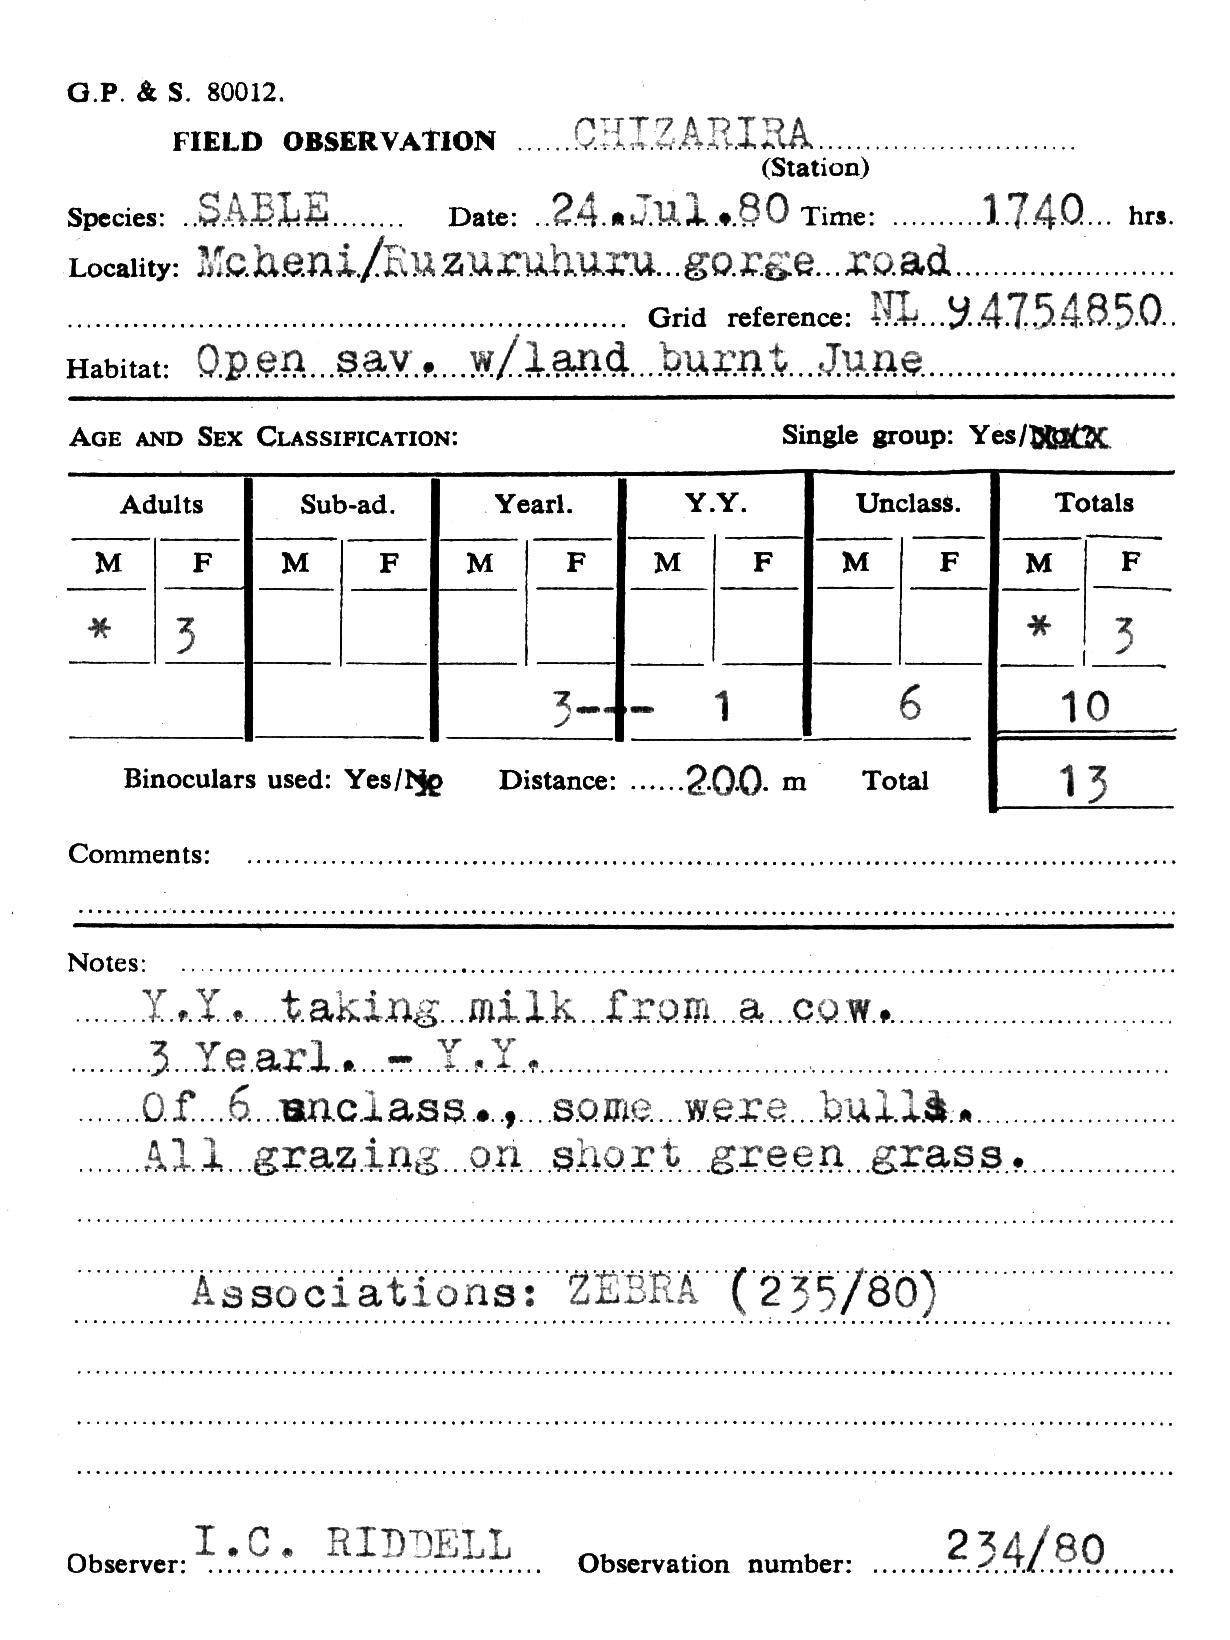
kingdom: Animalia
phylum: Chordata
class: Mammalia
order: Artiodactyla
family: Bovidae
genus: Hippotragus
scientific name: Hippotragus niger
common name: Sable antelope
